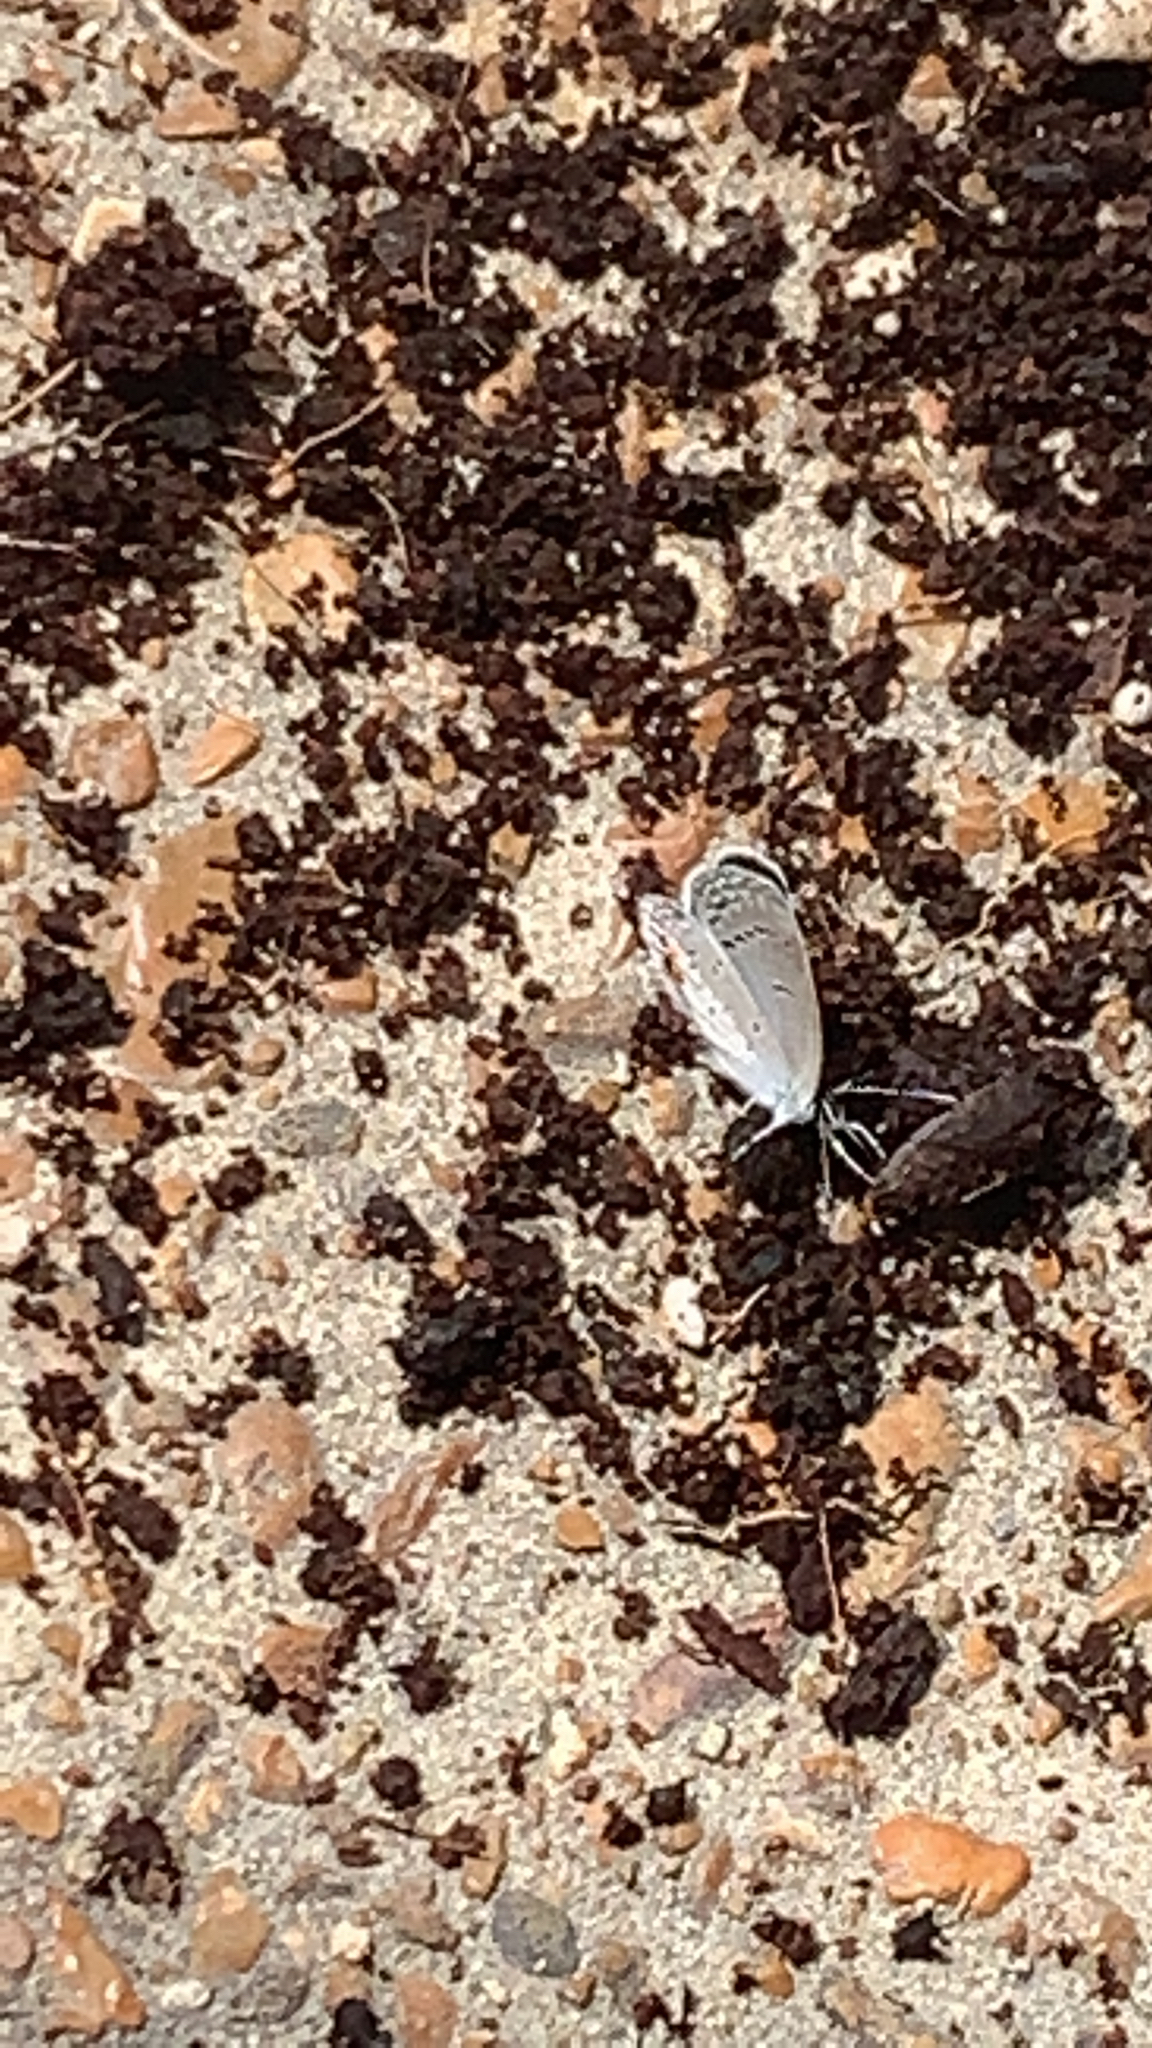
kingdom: Animalia
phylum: Arthropoda
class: Insecta
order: Lepidoptera
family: Lycaenidae
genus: Elkalyce
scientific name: Elkalyce comyntas
